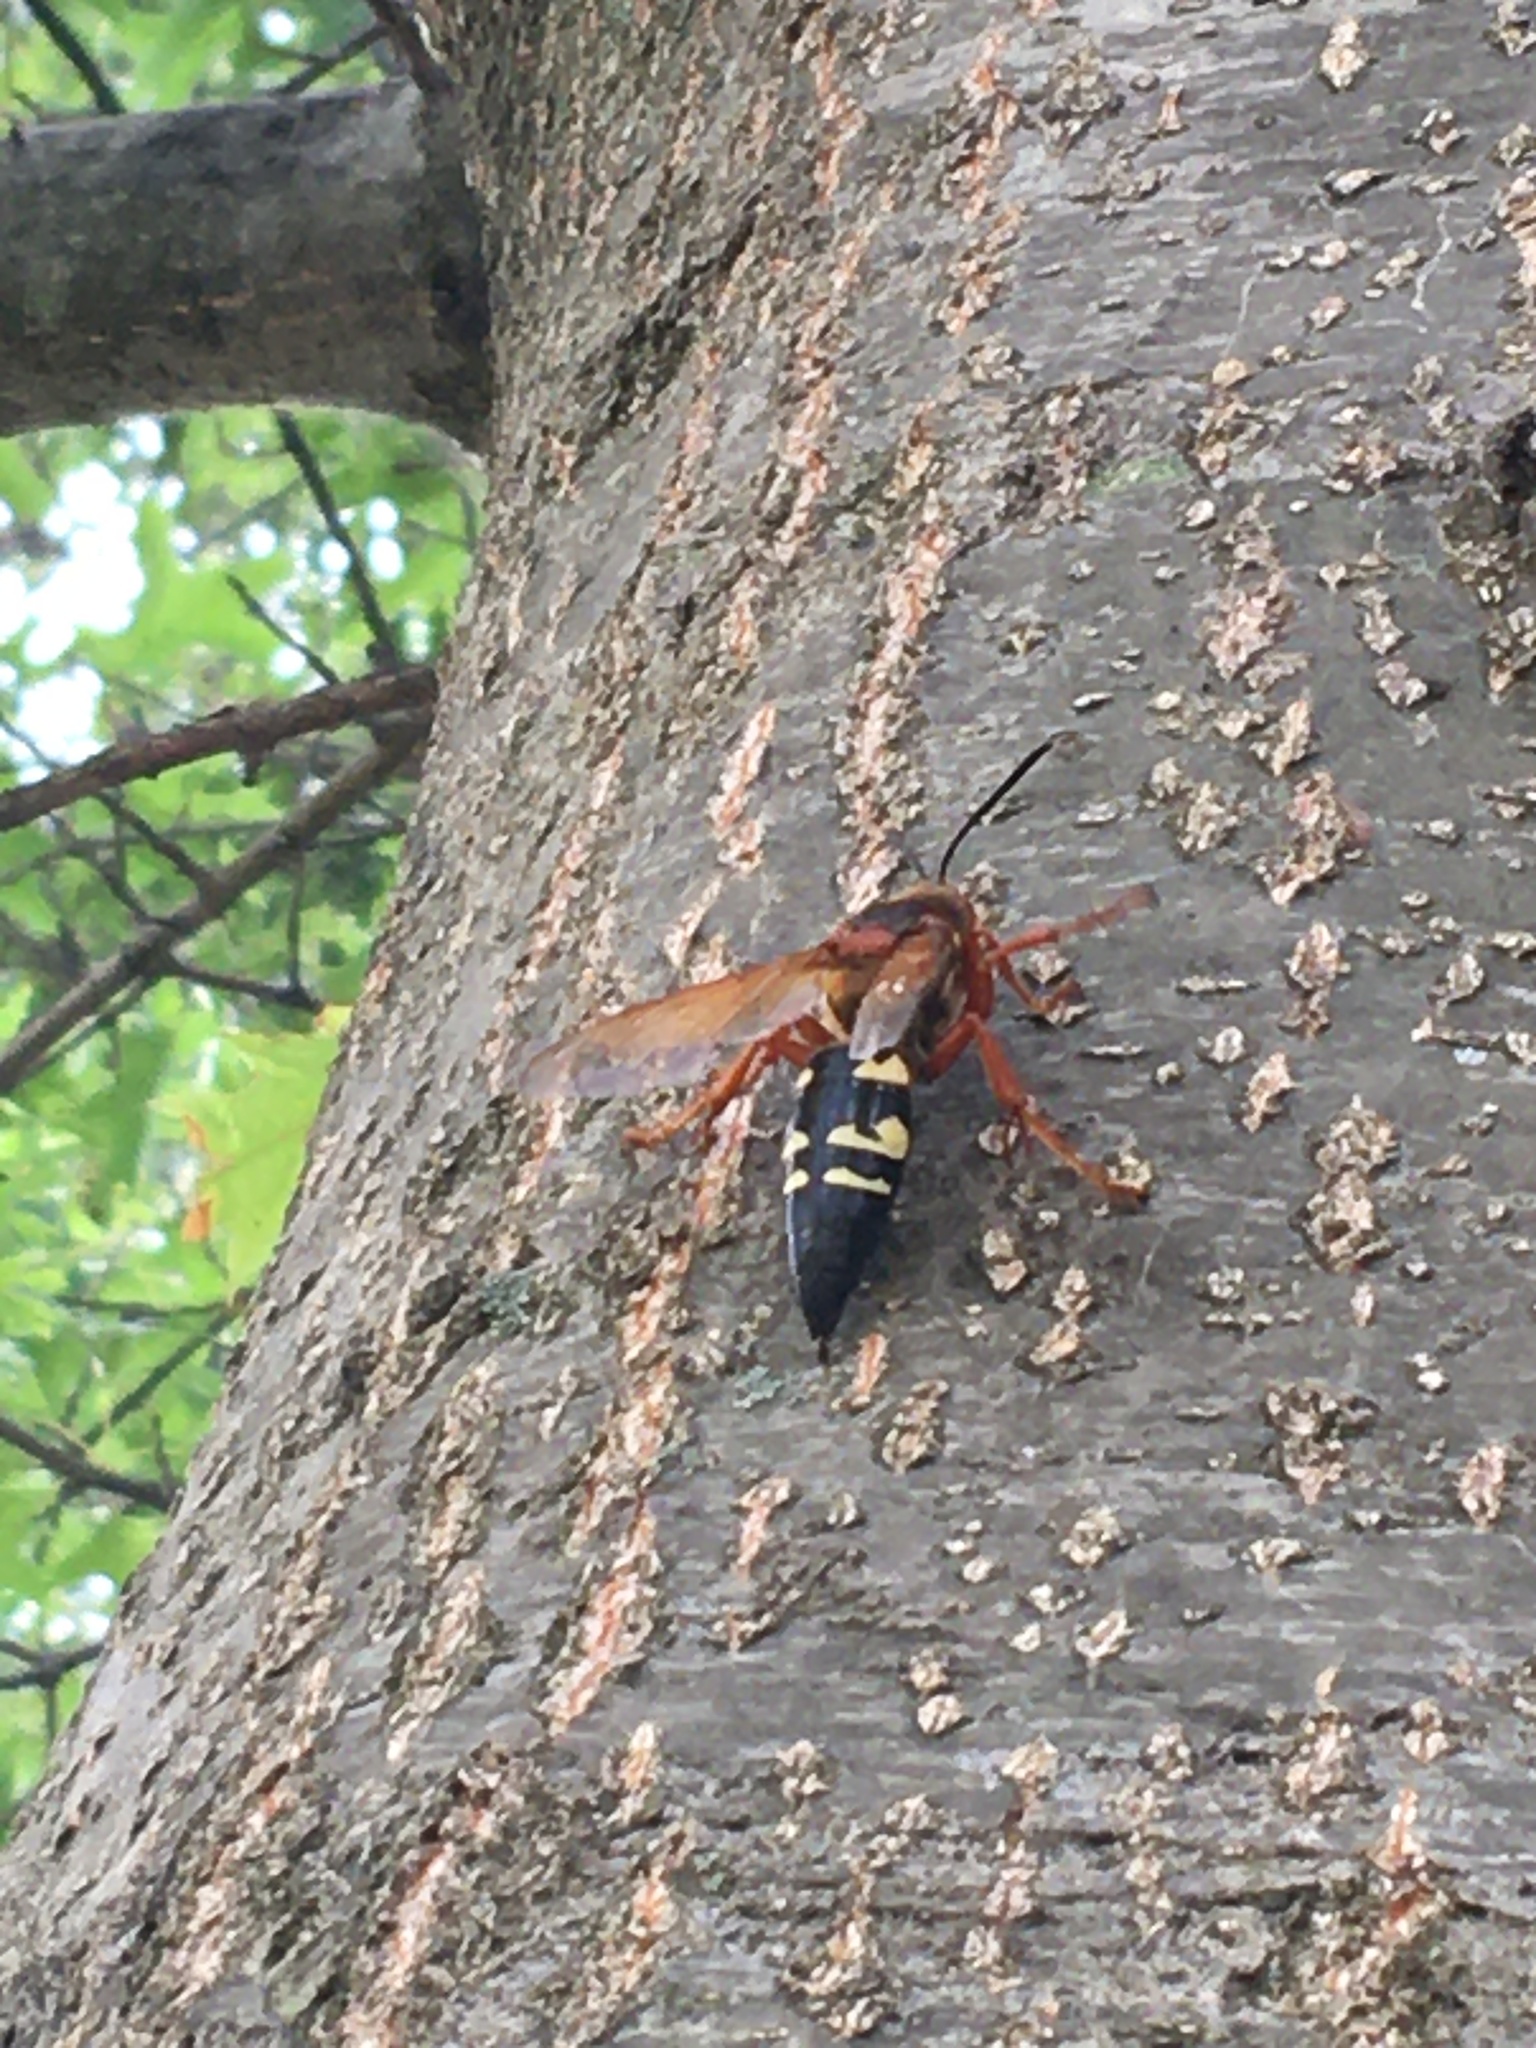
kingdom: Animalia
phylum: Arthropoda
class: Insecta
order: Hymenoptera
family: Crabronidae
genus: Sphecius
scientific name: Sphecius speciosus
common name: Cicada killer
